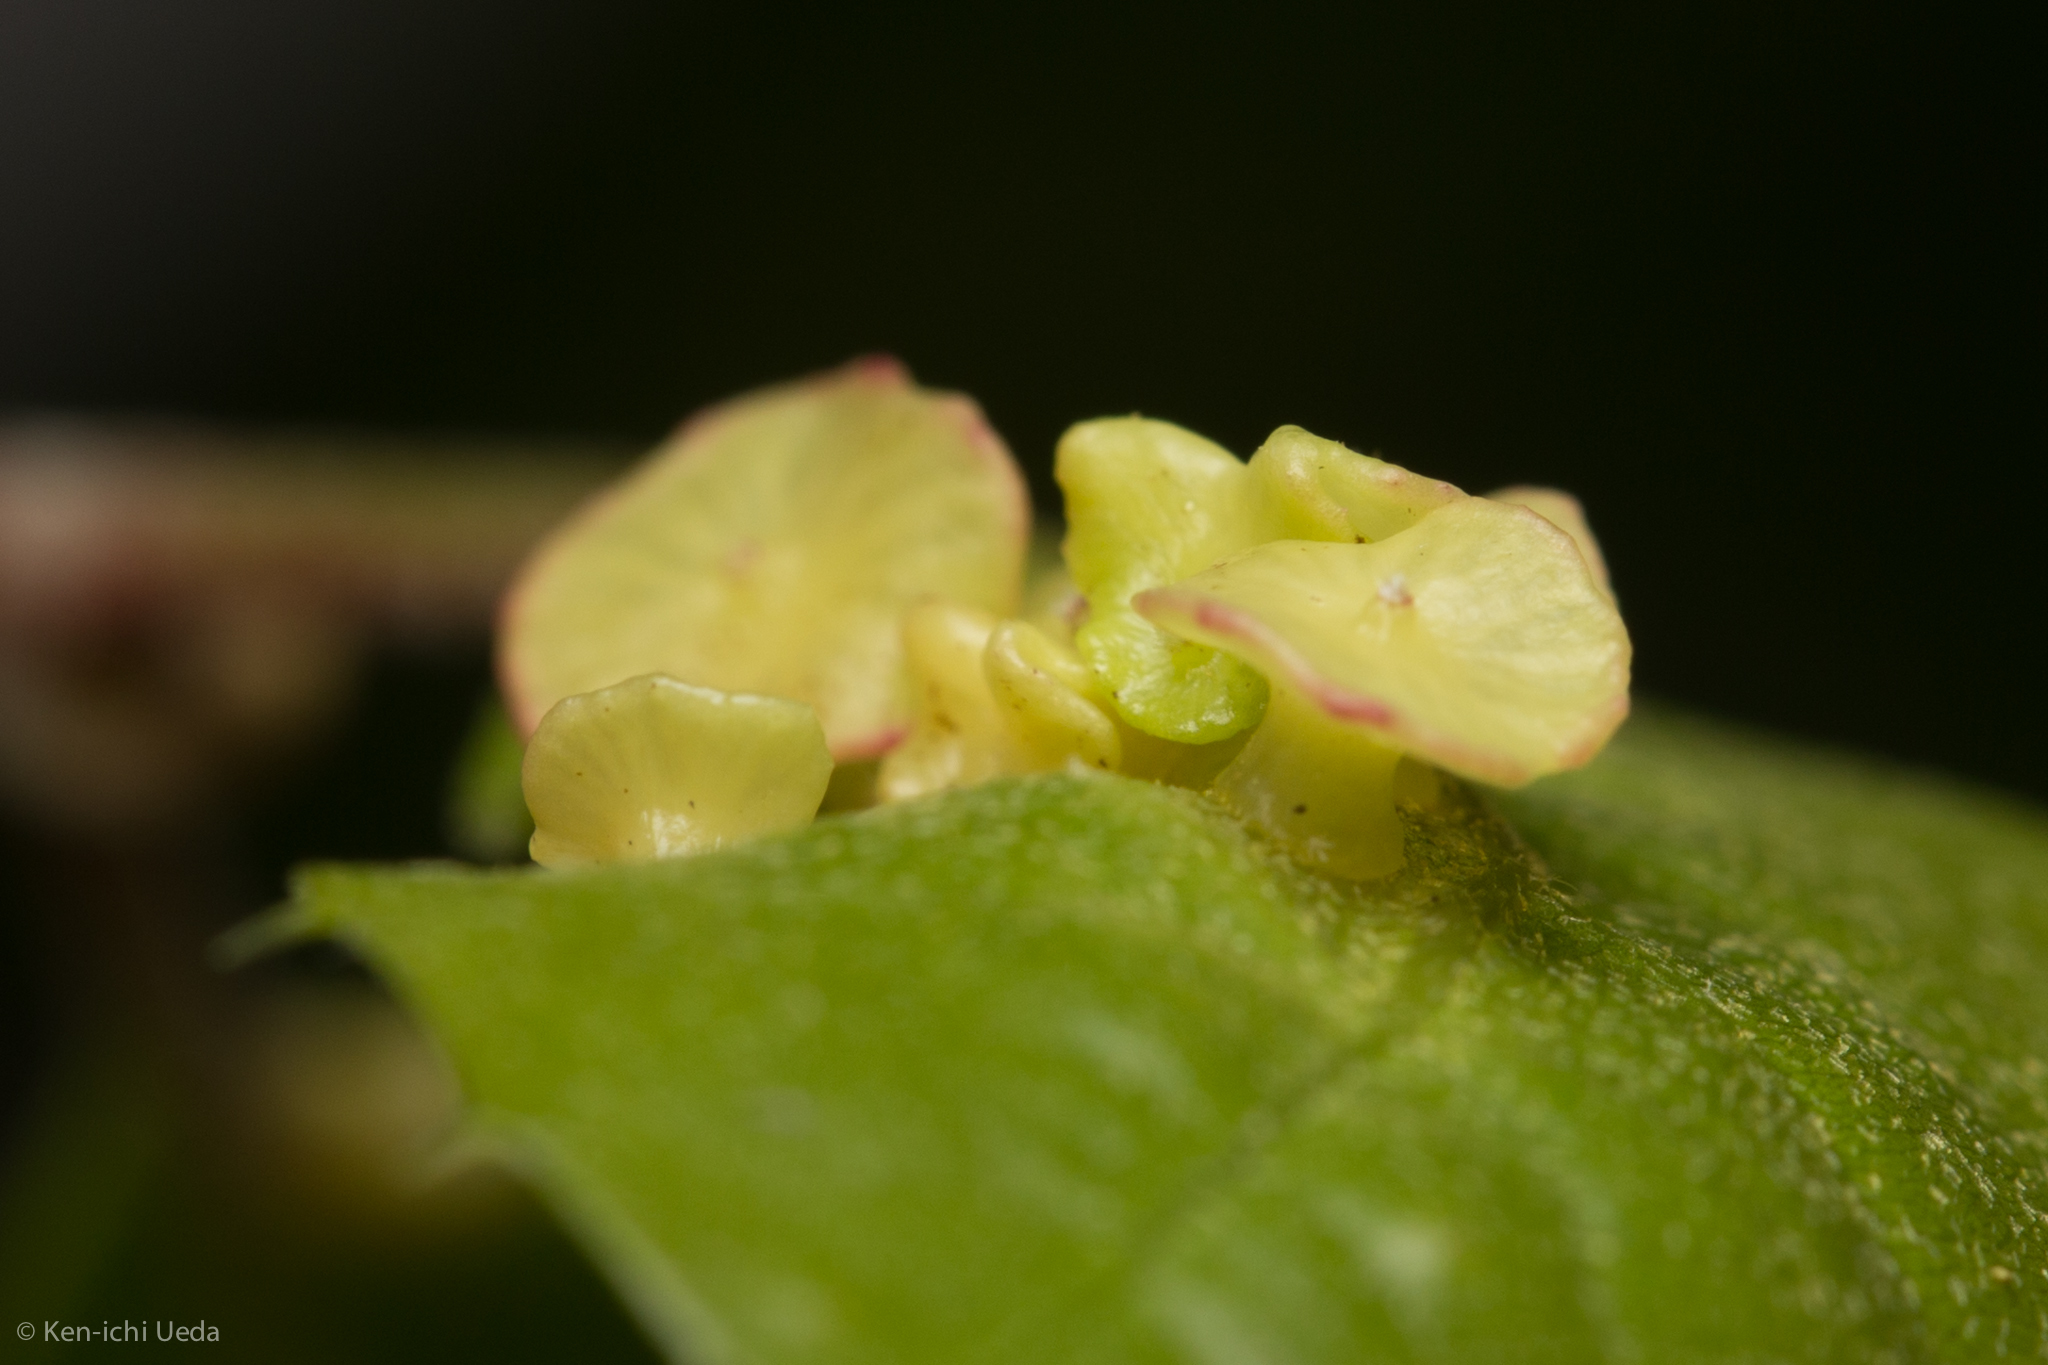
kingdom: Animalia
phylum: Arthropoda
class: Insecta
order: Hymenoptera
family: Cynipidae
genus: Amphibolips
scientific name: Amphibolips quercuspomiformis
